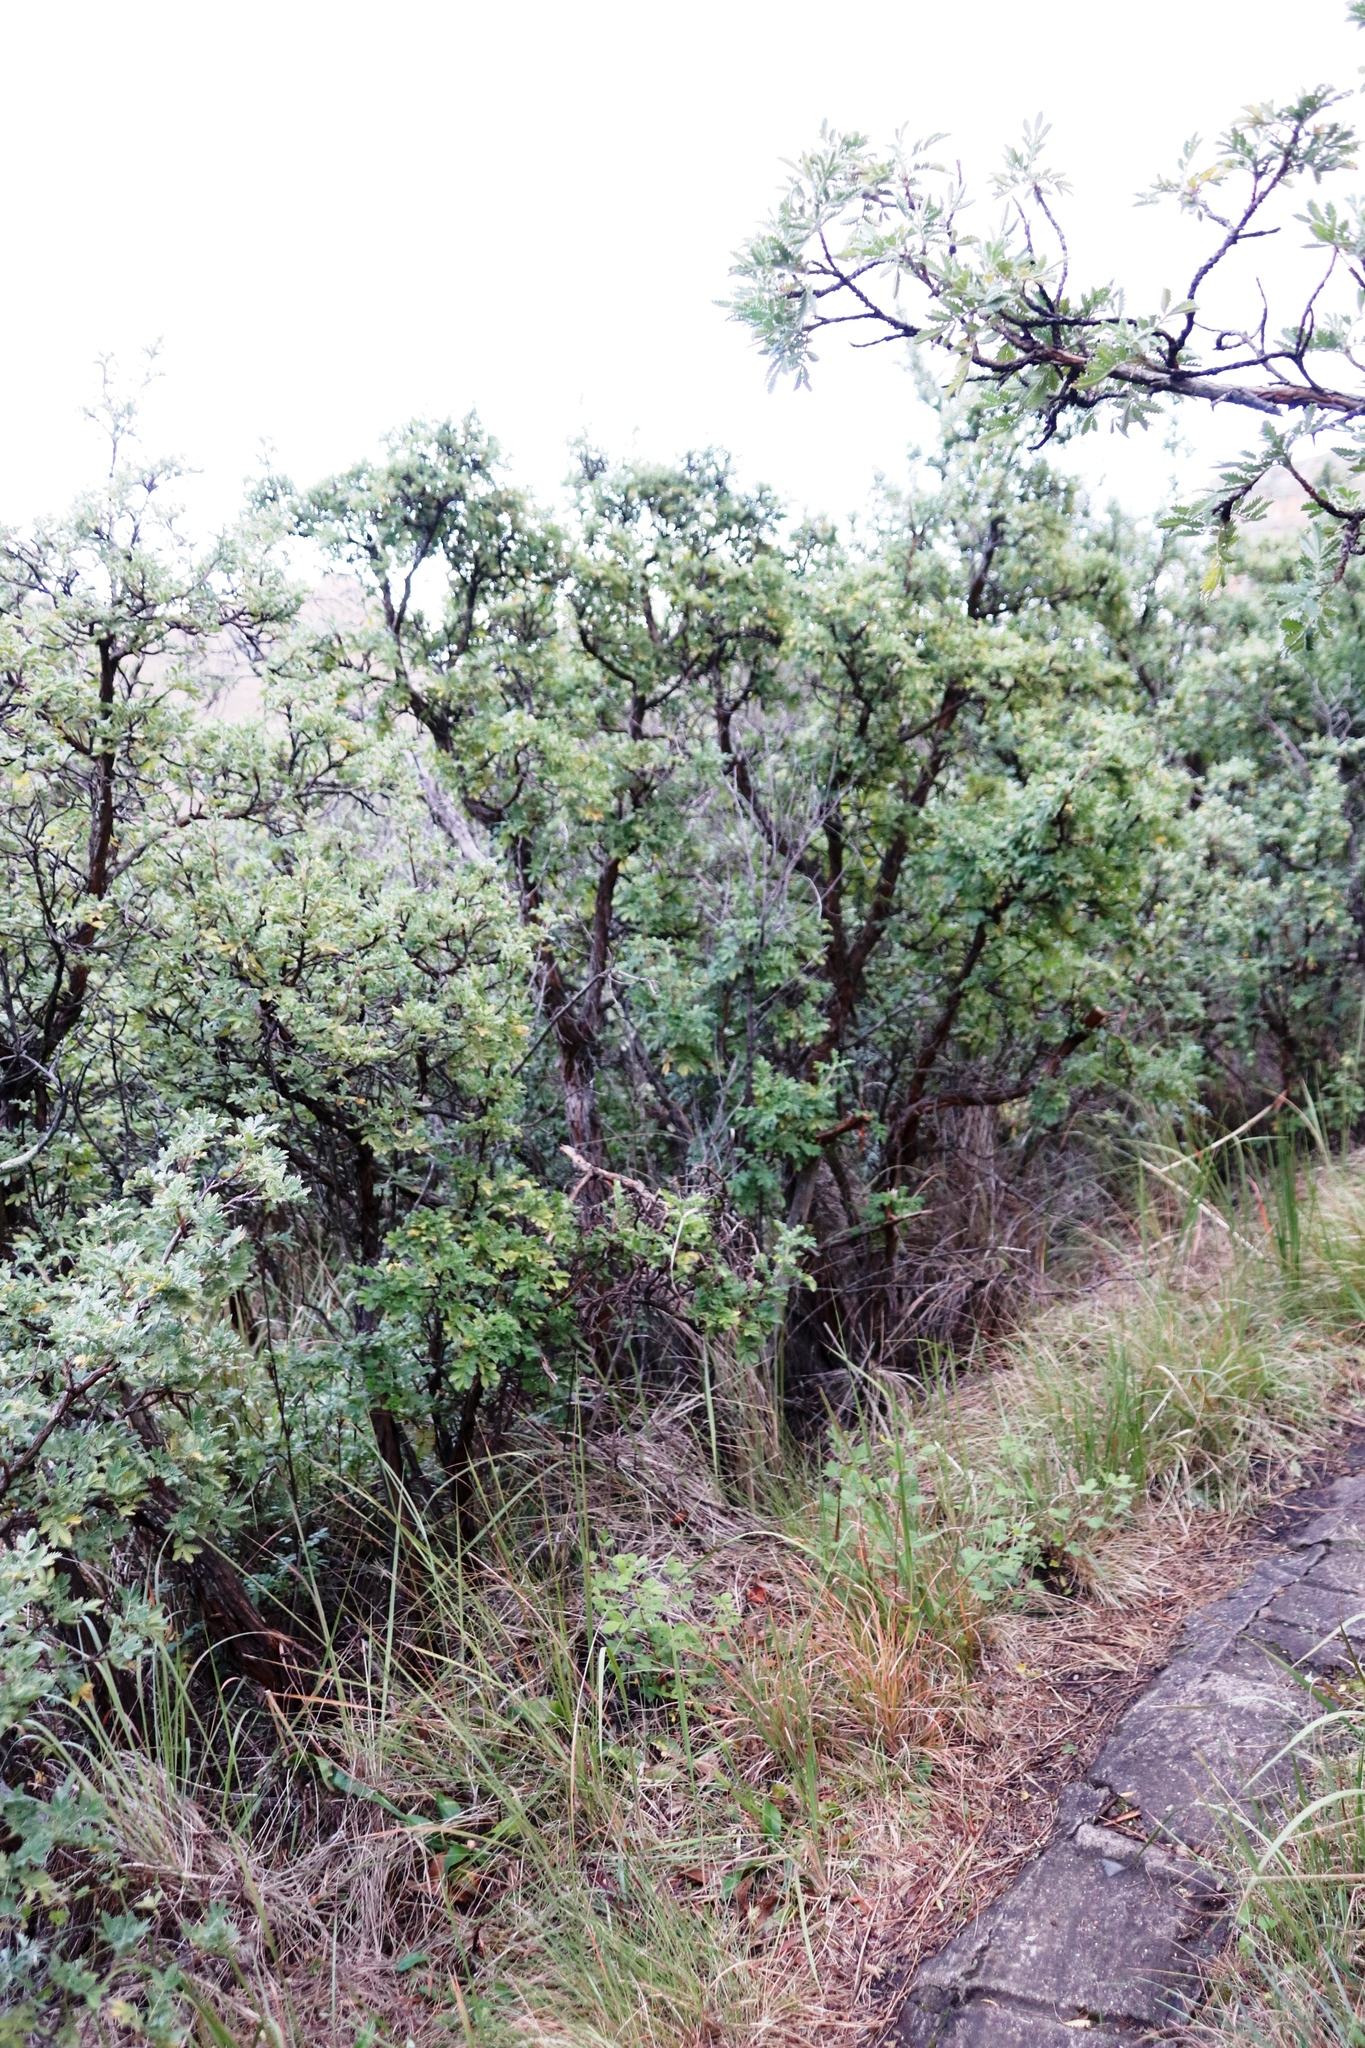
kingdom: Plantae
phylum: Tracheophyta
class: Magnoliopsida
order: Rosales
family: Rosaceae
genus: Leucosidea
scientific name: Leucosidea sericea
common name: Oldwood
